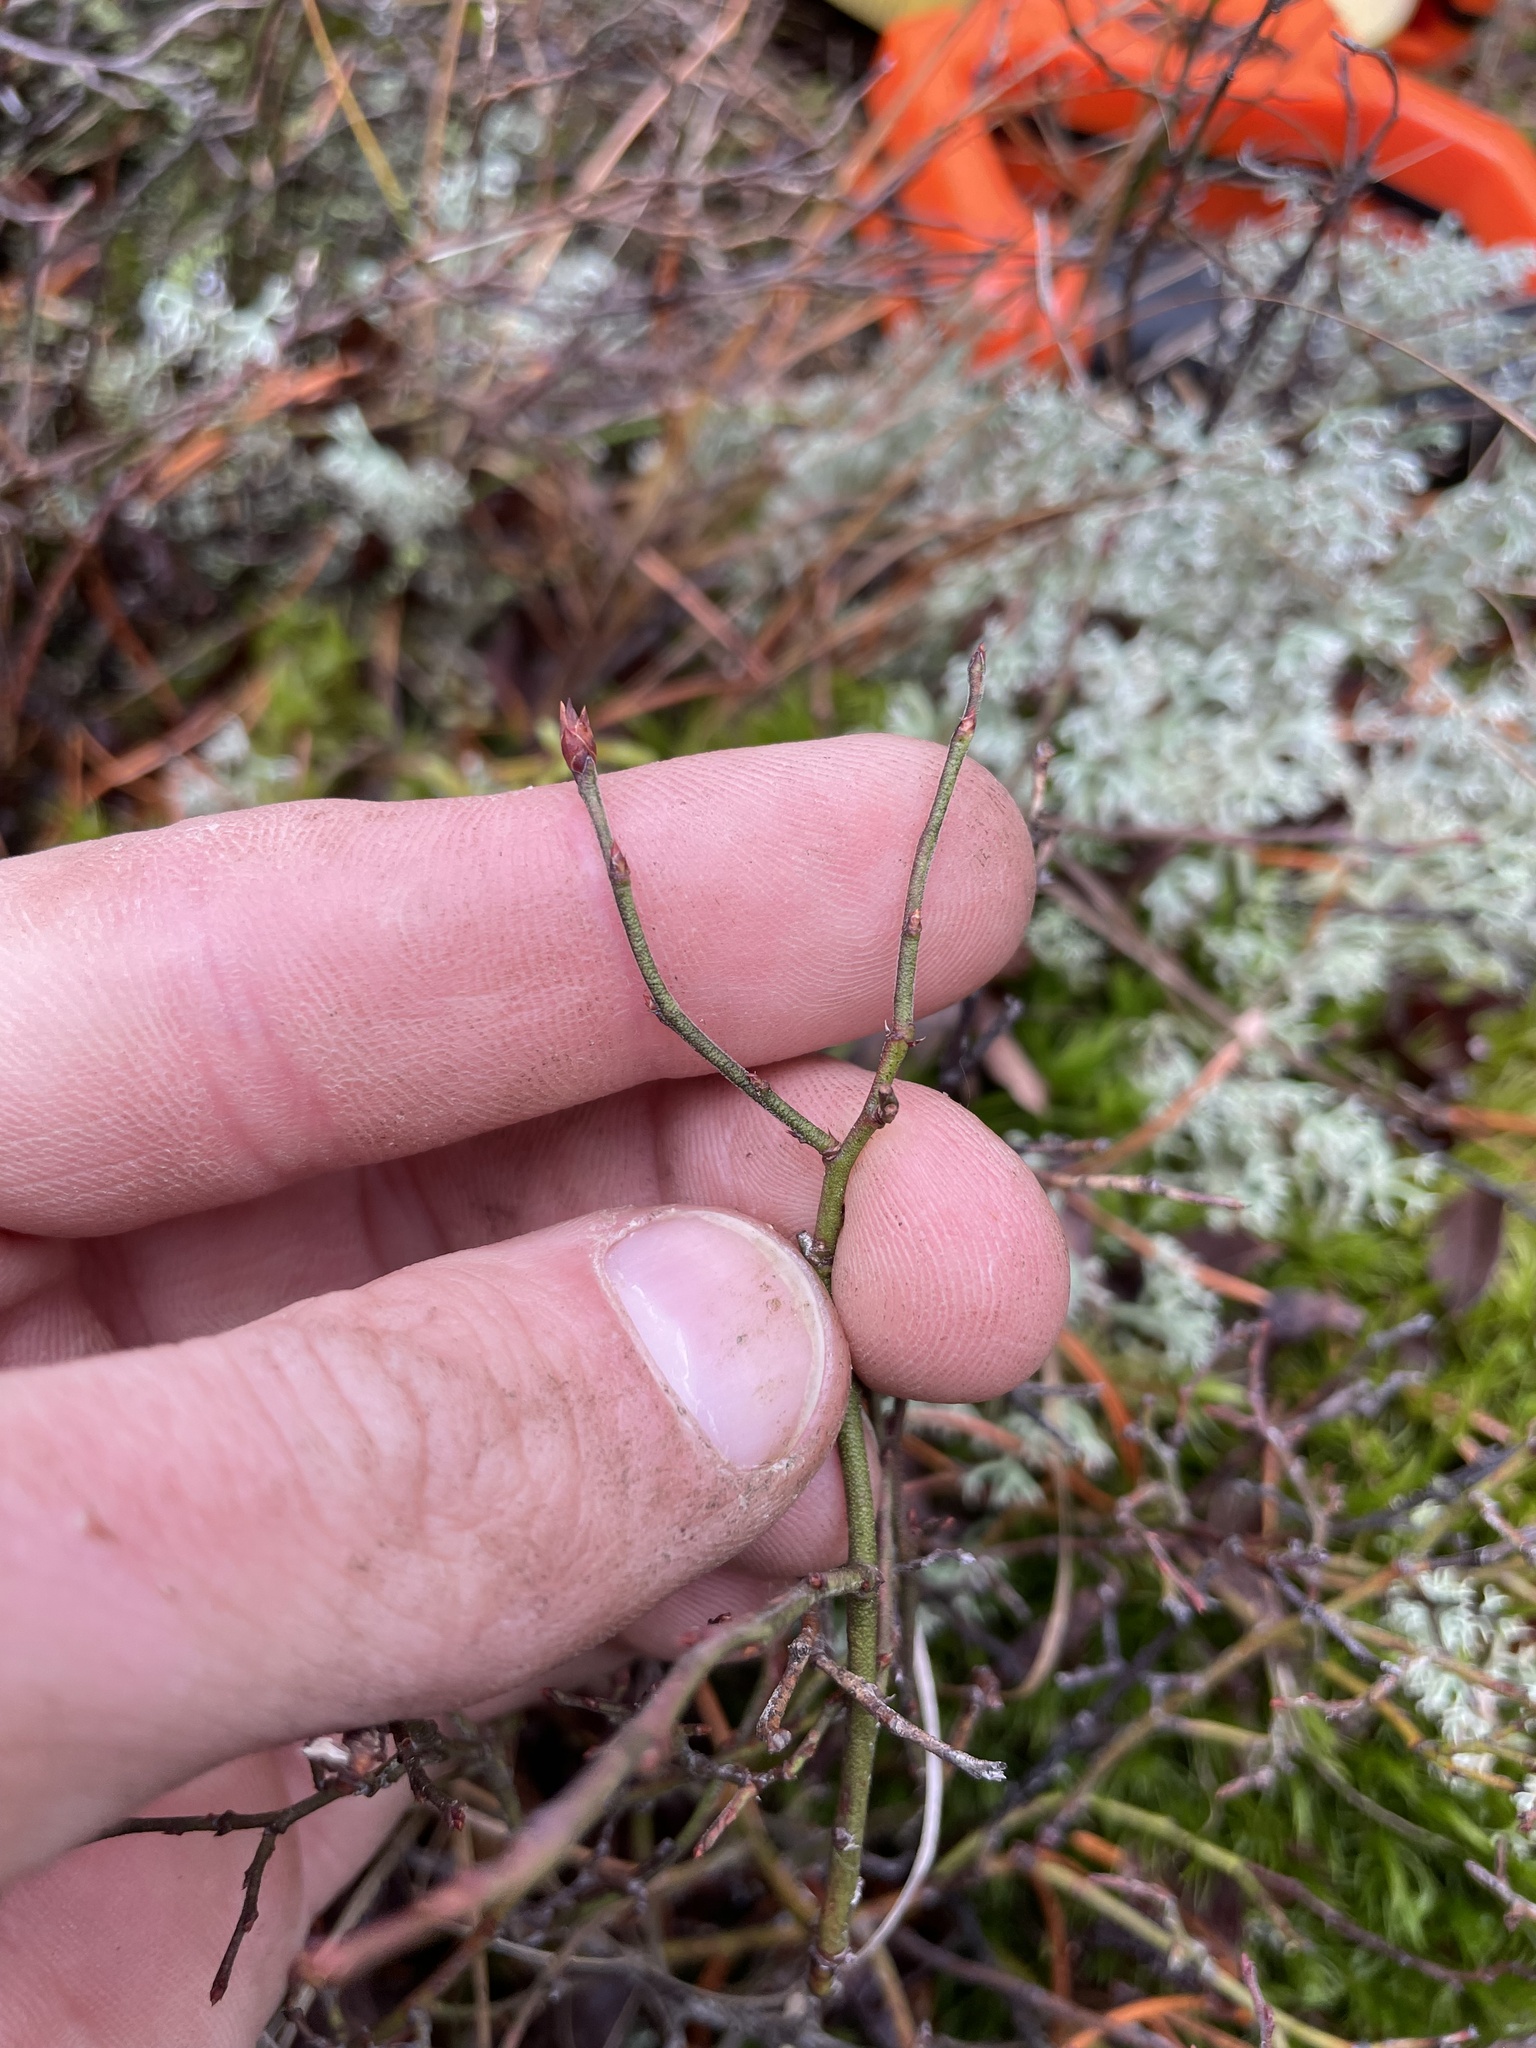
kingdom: Plantae
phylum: Tracheophyta
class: Magnoliopsida
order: Ericales
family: Ericaceae
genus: Vaccinium
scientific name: Vaccinium angustifolium
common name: Early lowbush blueberry
